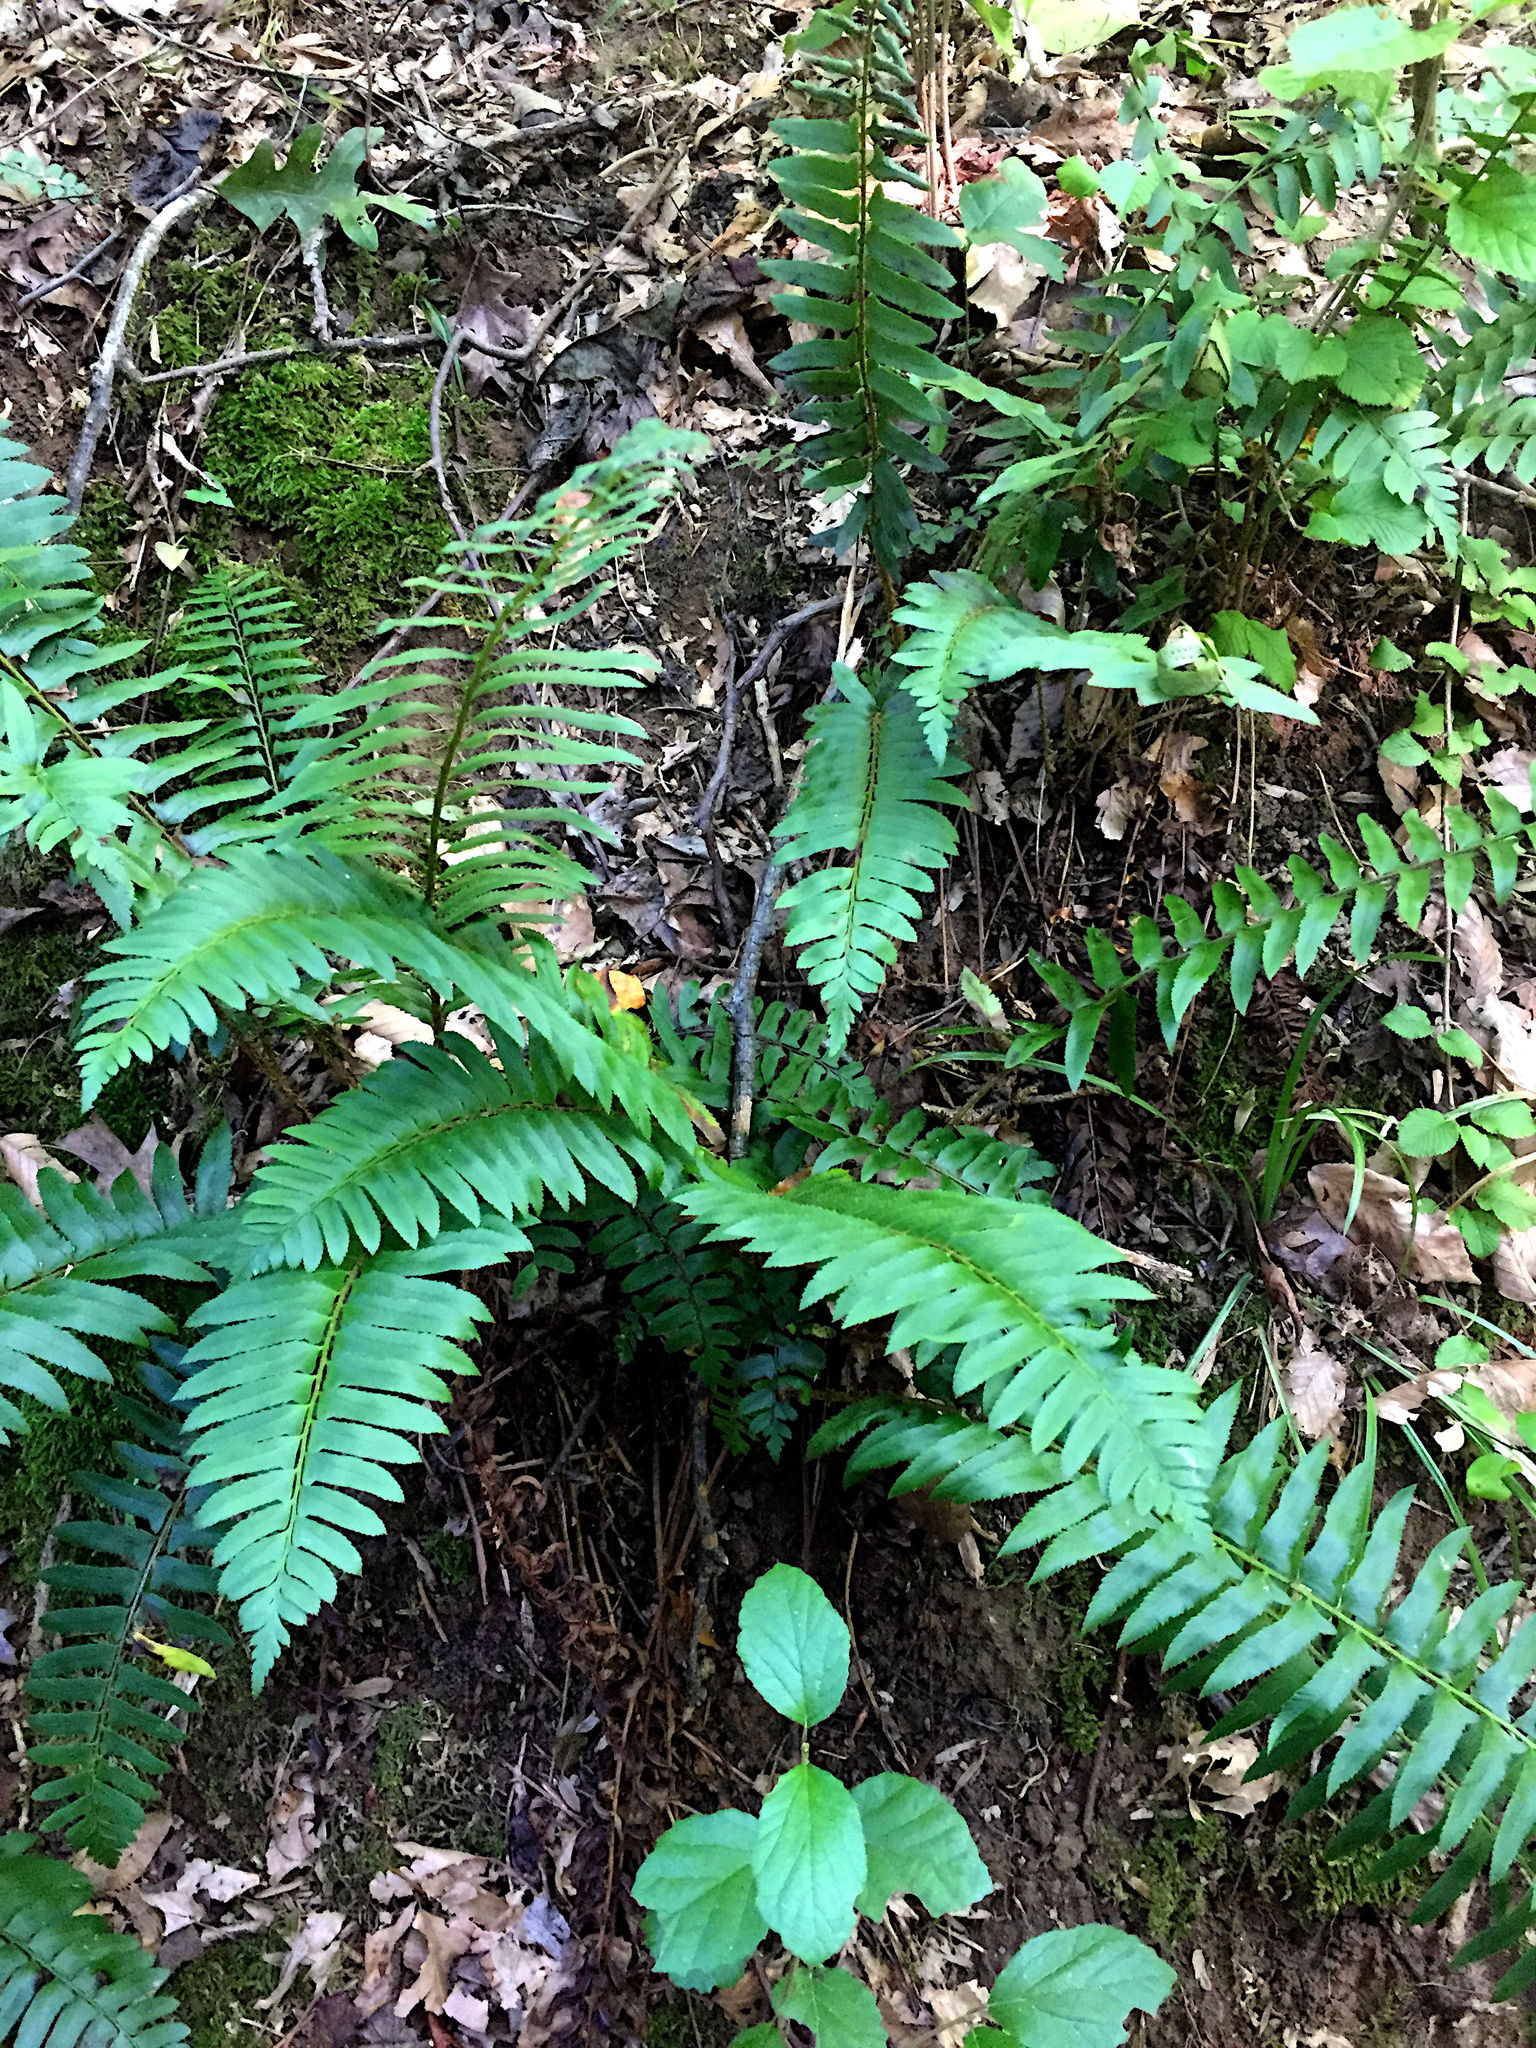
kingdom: Plantae
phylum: Tracheophyta
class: Polypodiopsida
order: Polypodiales
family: Dryopteridaceae
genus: Polystichum
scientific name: Polystichum acrostichoides
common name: Christmas fern
